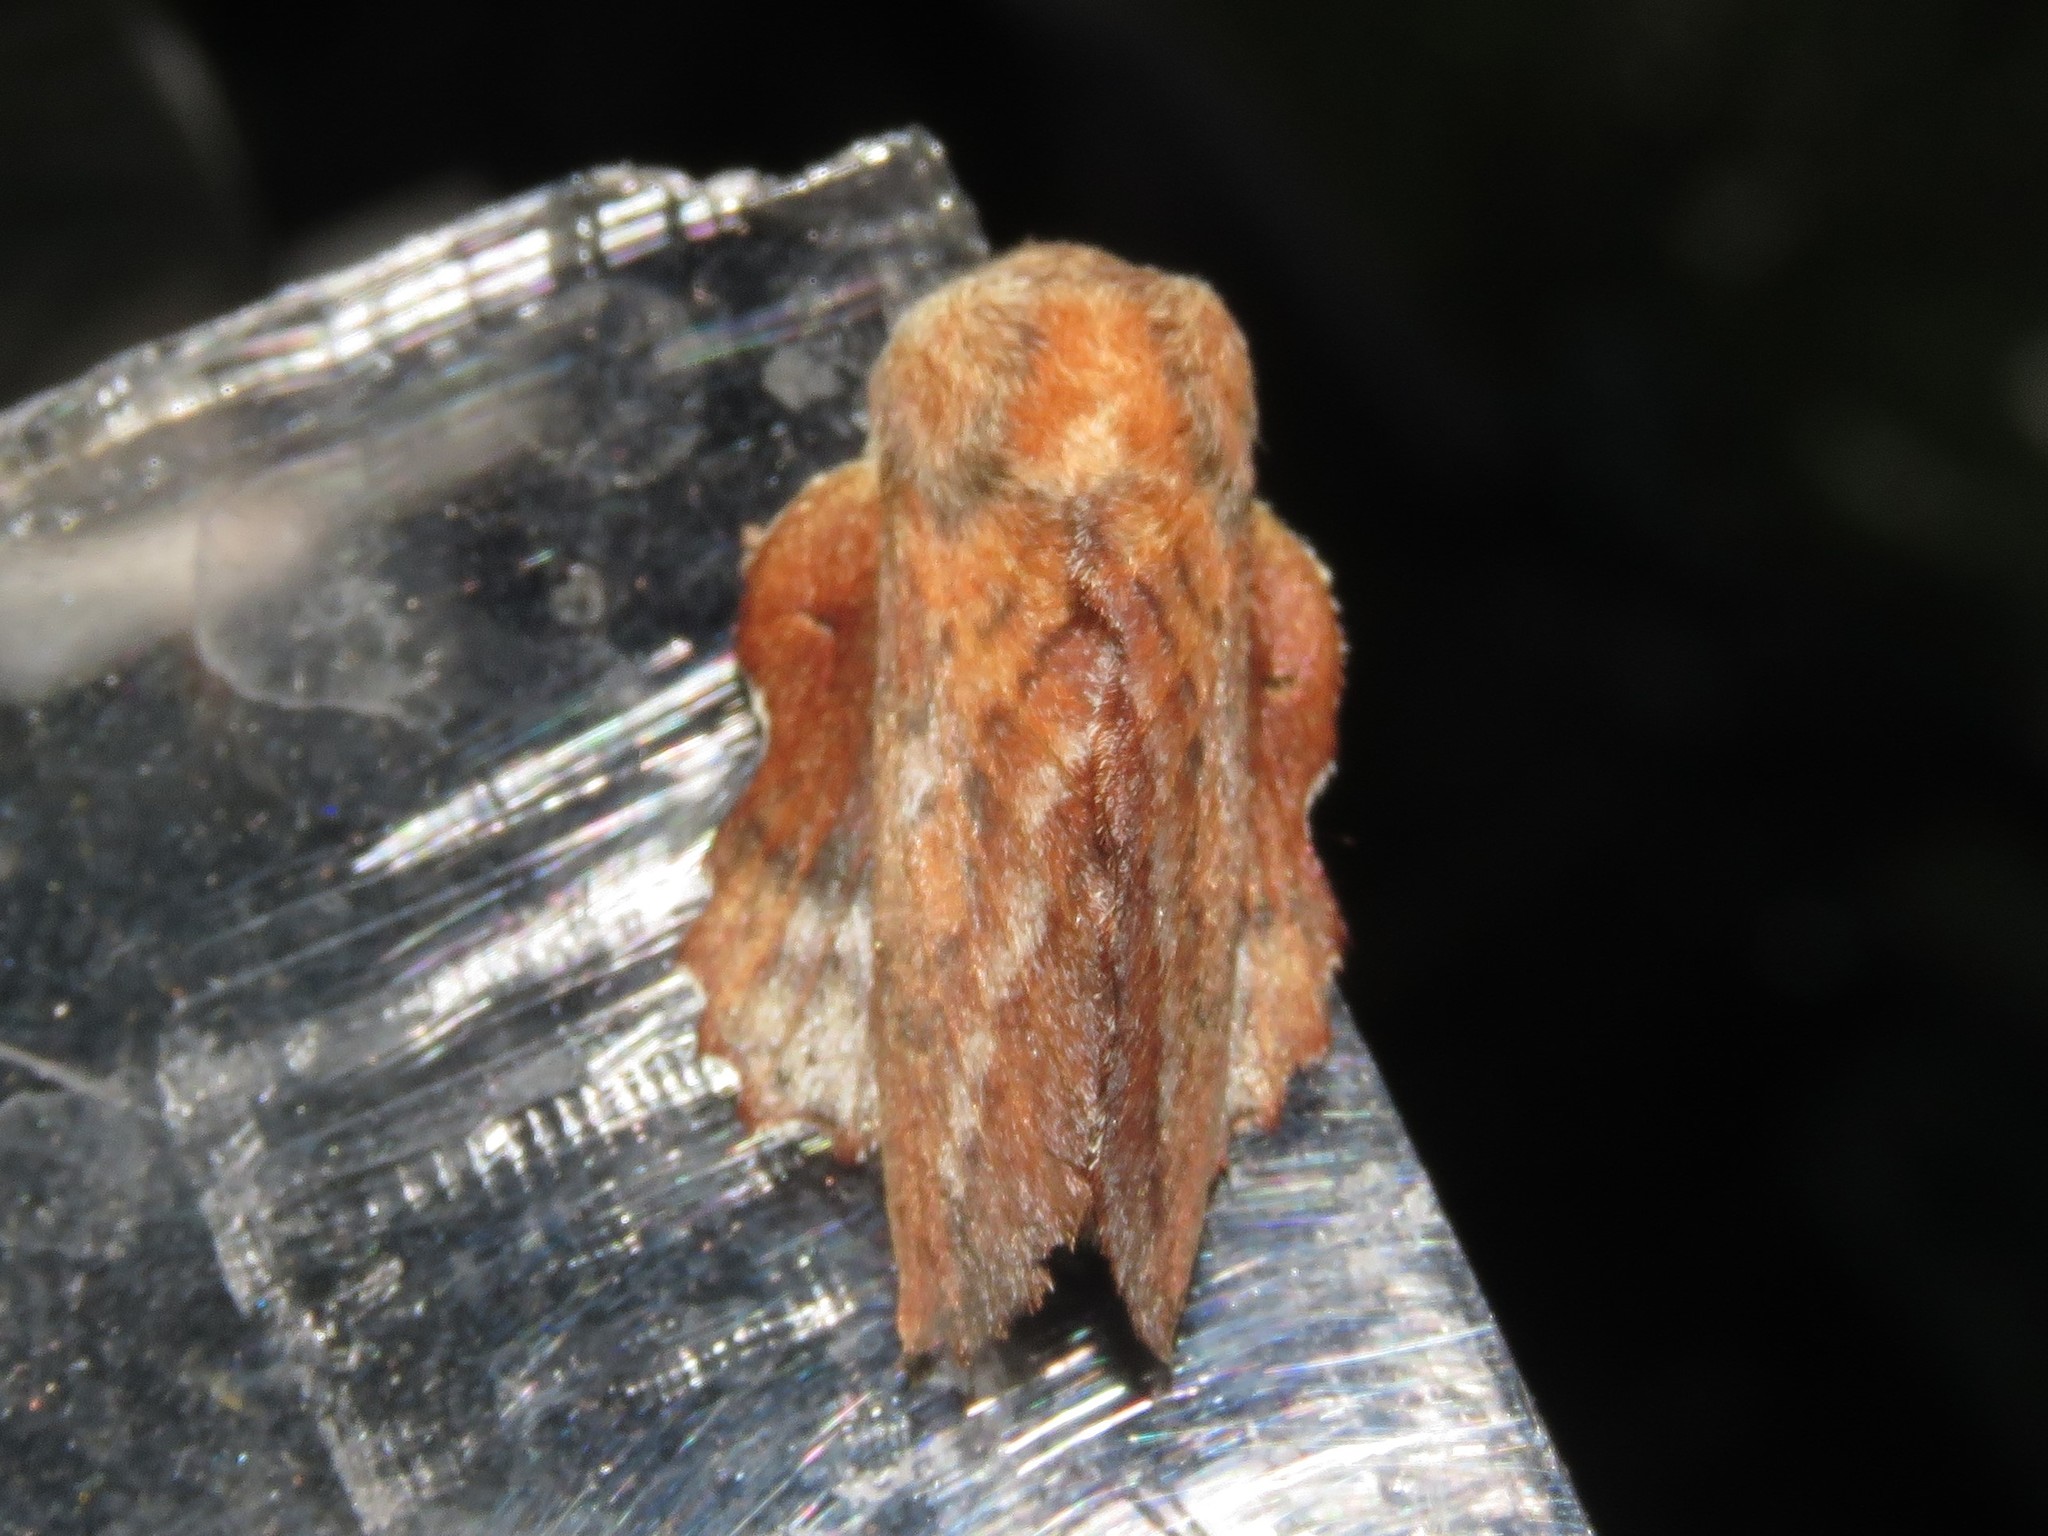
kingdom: Animalia
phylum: Arthropoda
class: Insecta
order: Lepidoptera
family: Lasiocampidae
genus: Phyllodesma
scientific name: Phyllodesma americana
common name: American lappet moth
